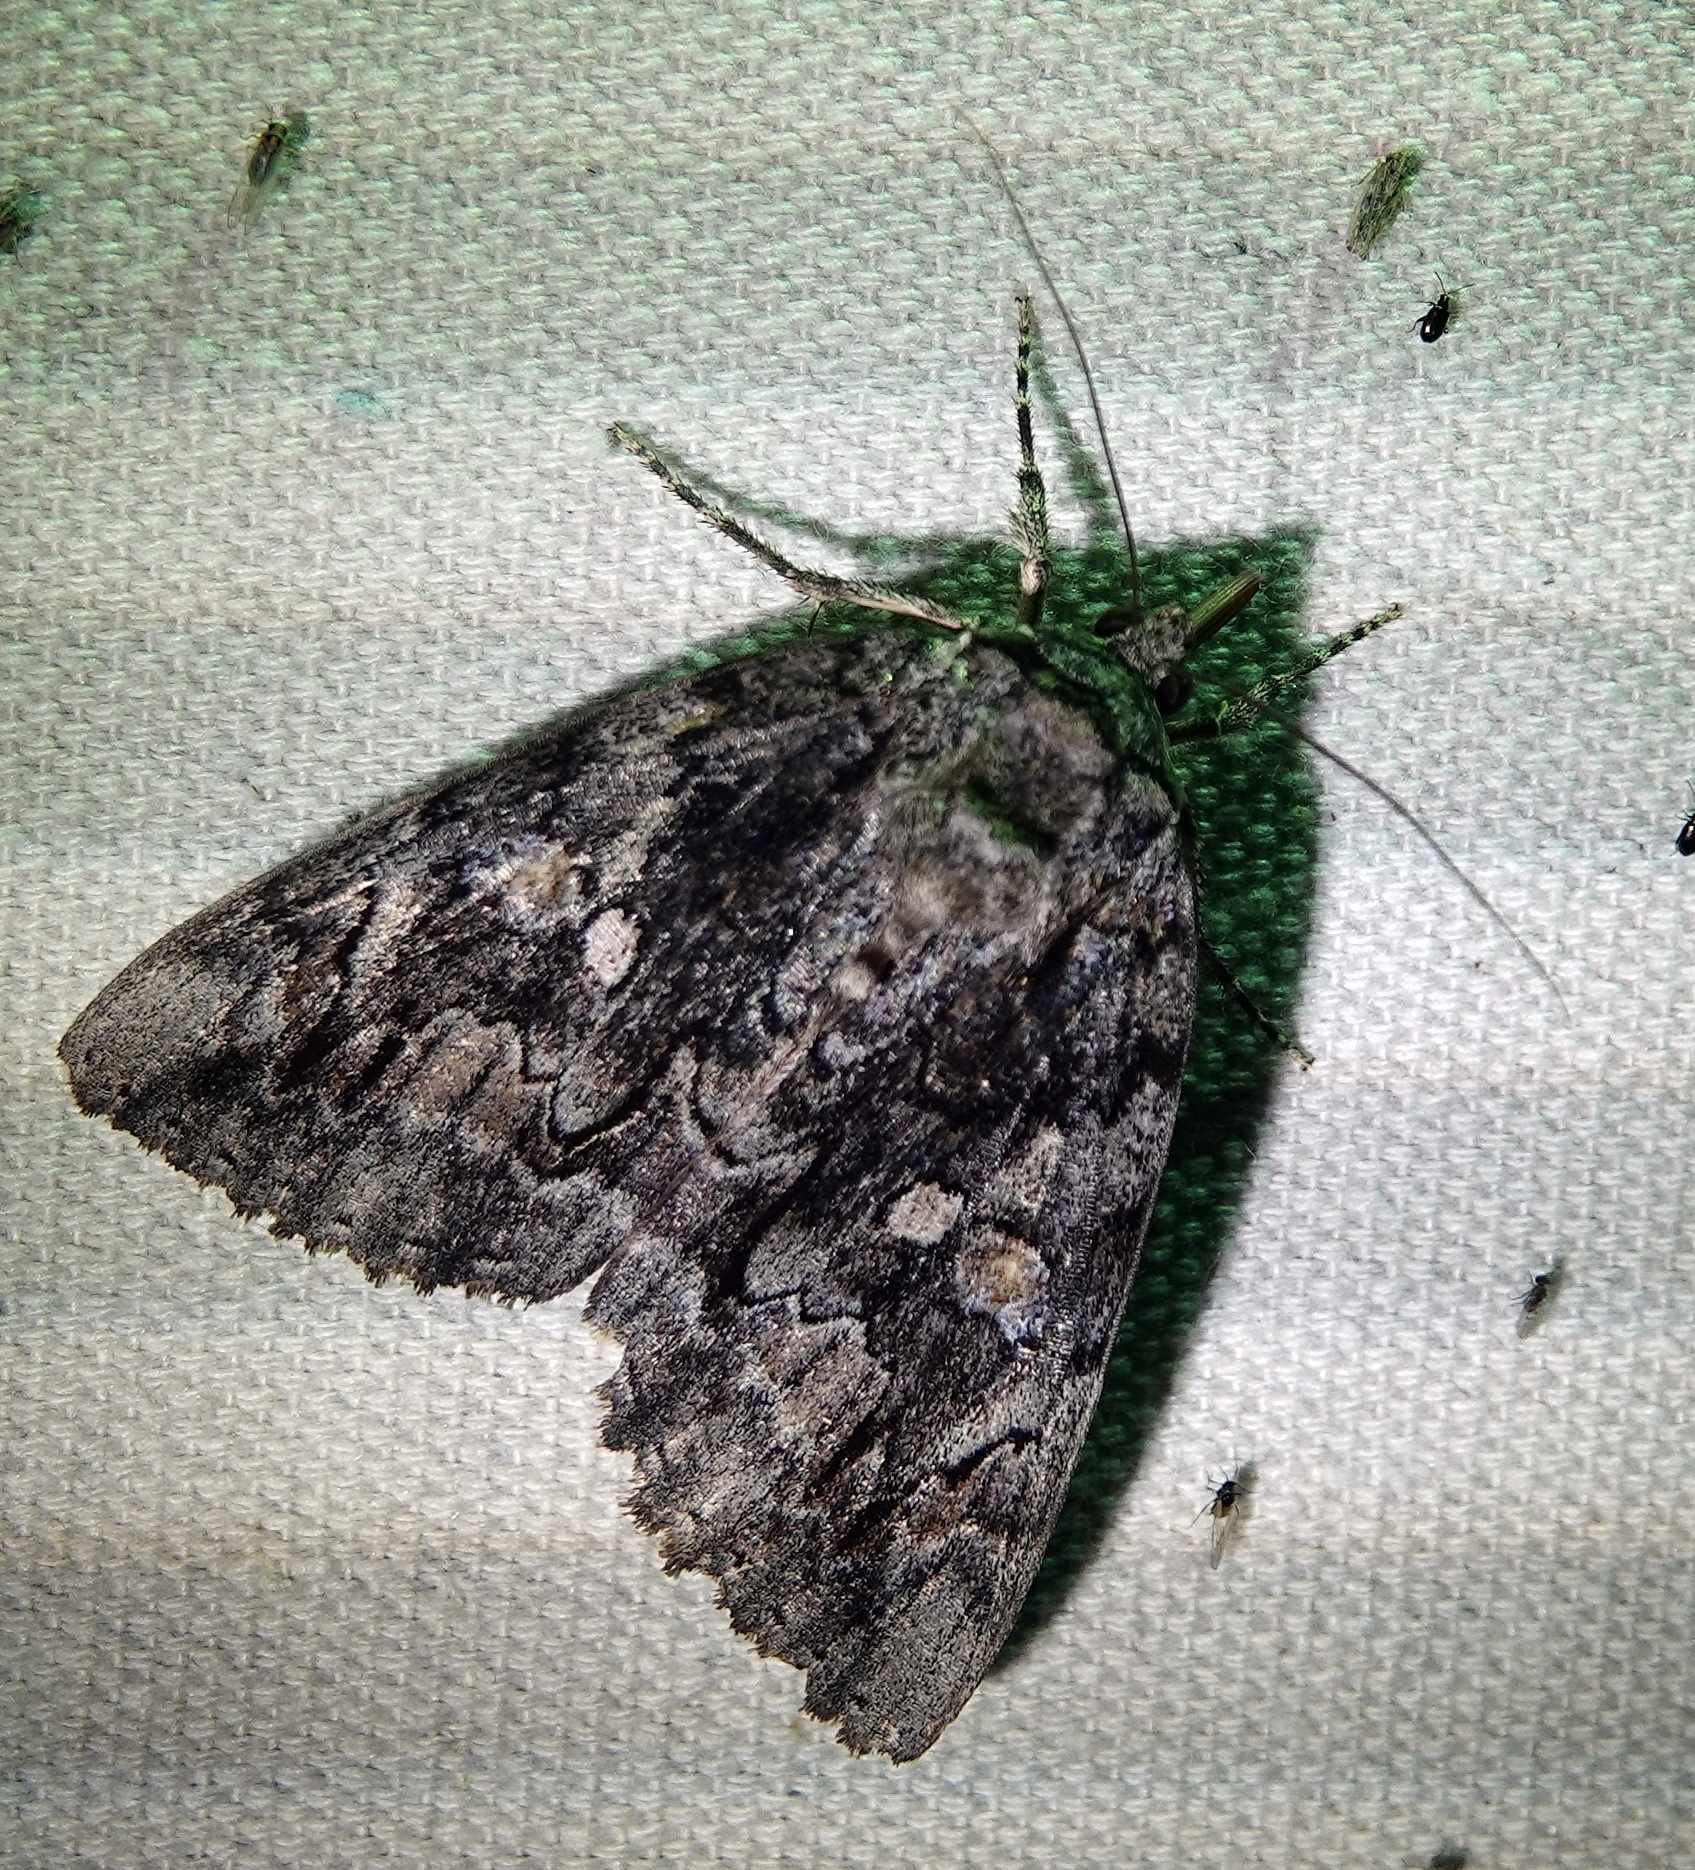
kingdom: Animalia
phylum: Arthropoda
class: Insecta
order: Lepidoptera
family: Erebidae
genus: Catocala
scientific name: Catocala neogama
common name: Bride underwing
